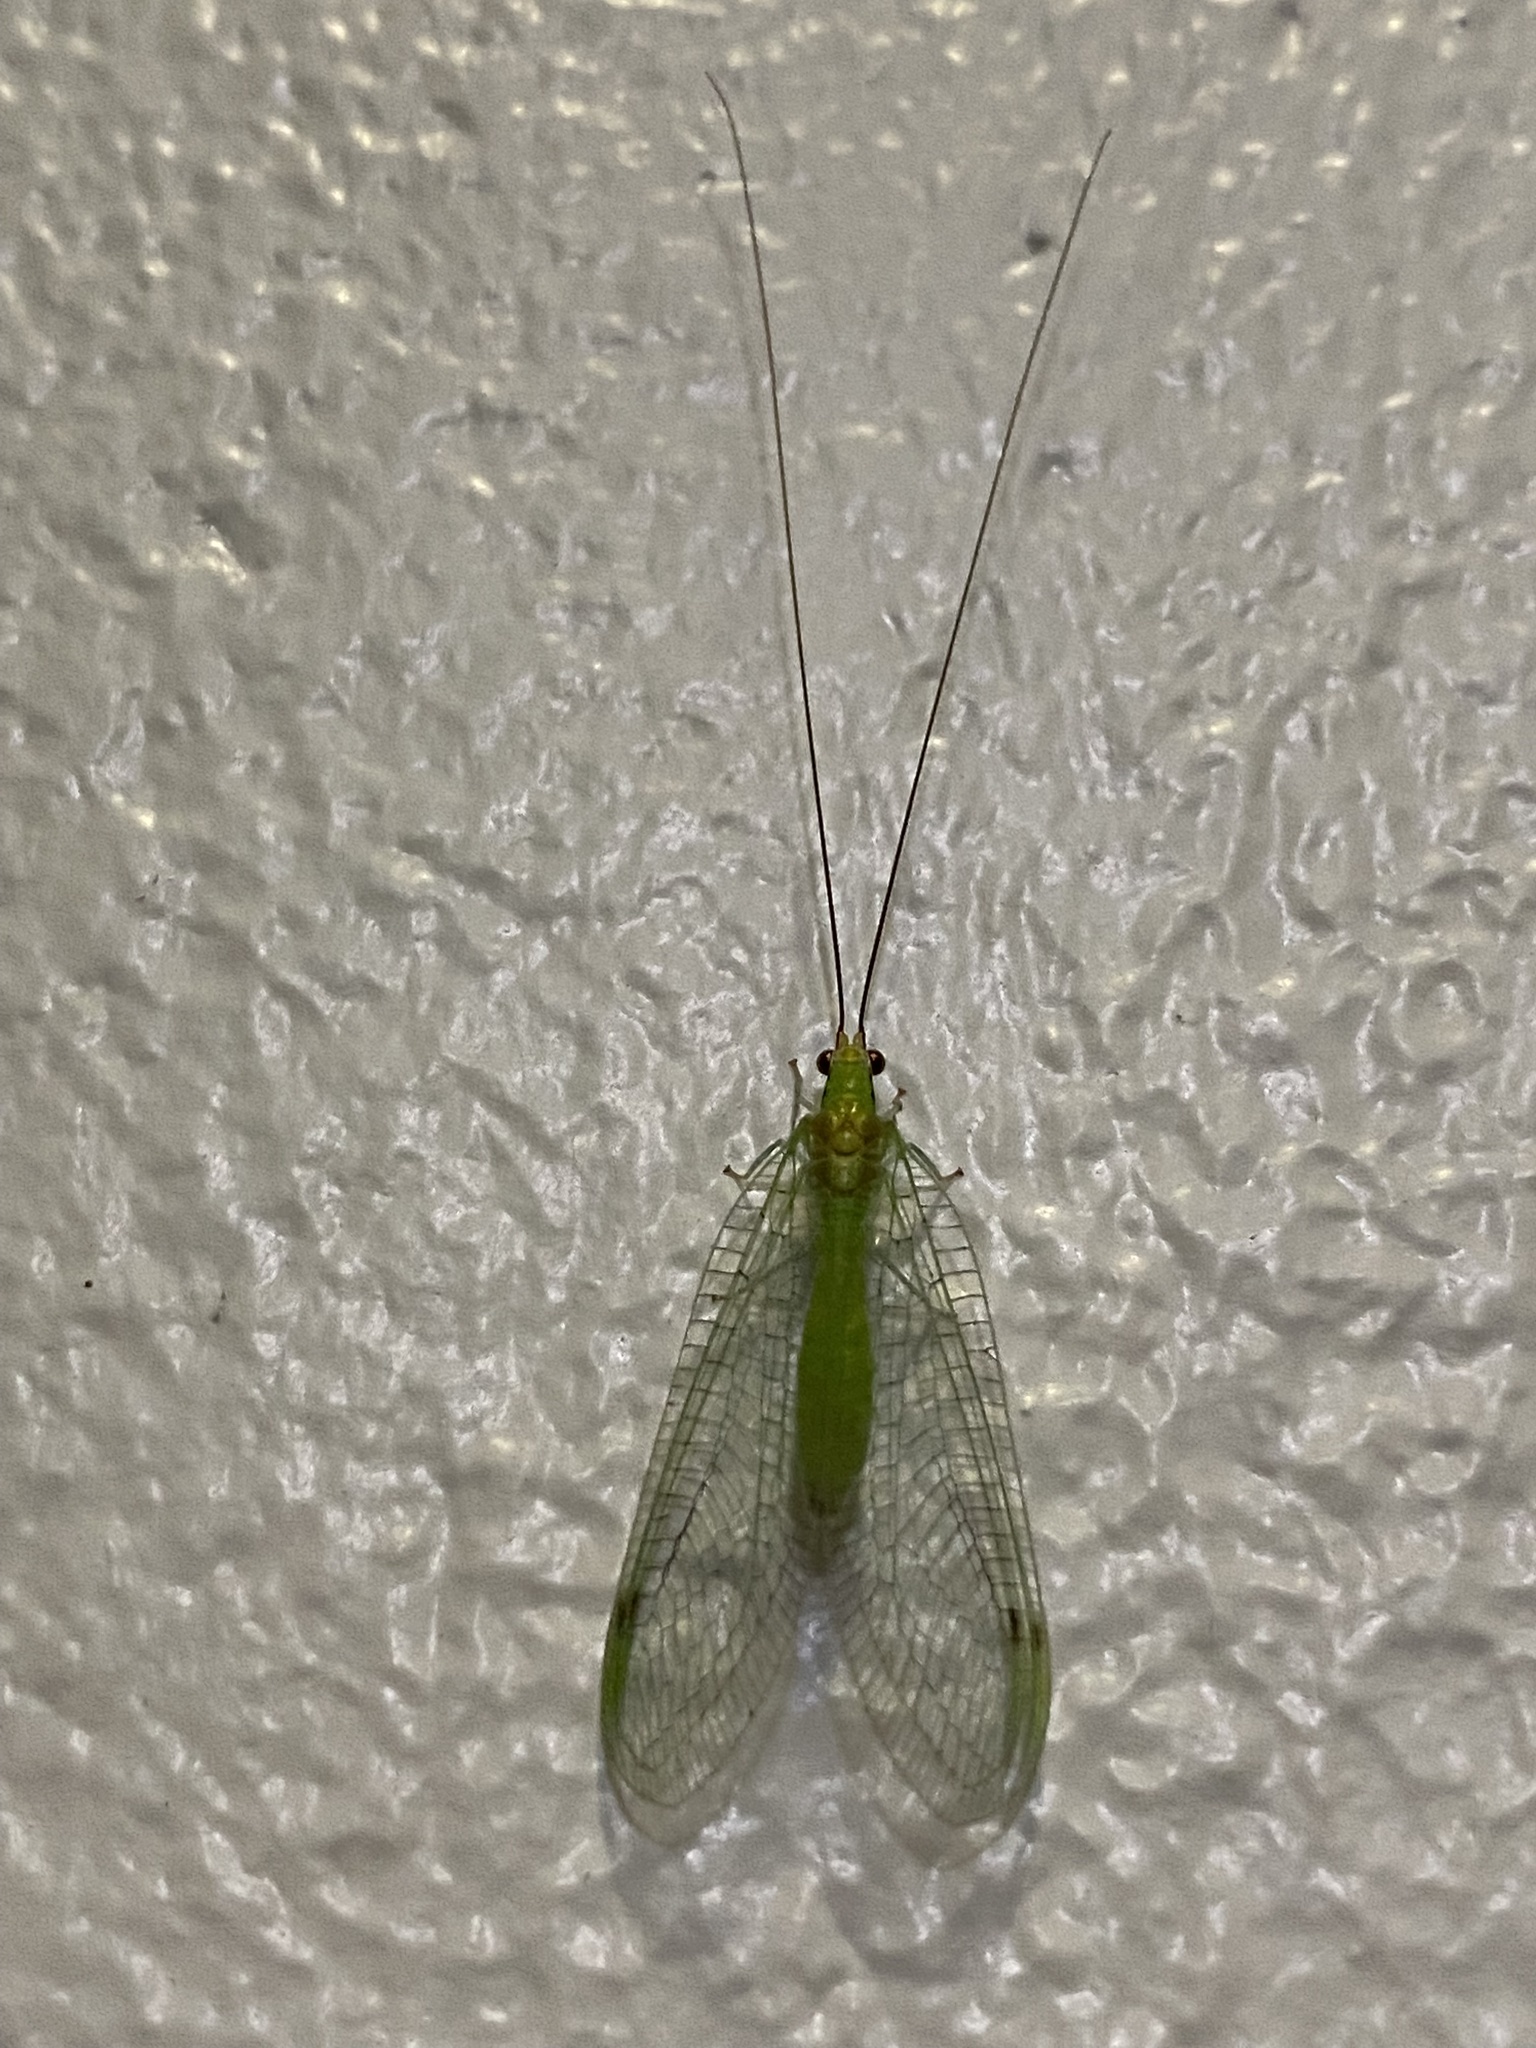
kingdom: Animalia
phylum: Arthropoda
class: Insecta
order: Neuroptera
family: Chrysopidae
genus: Leucochrysa
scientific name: Leucochrysa pavida
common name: Lichen-carrying green lacewing
